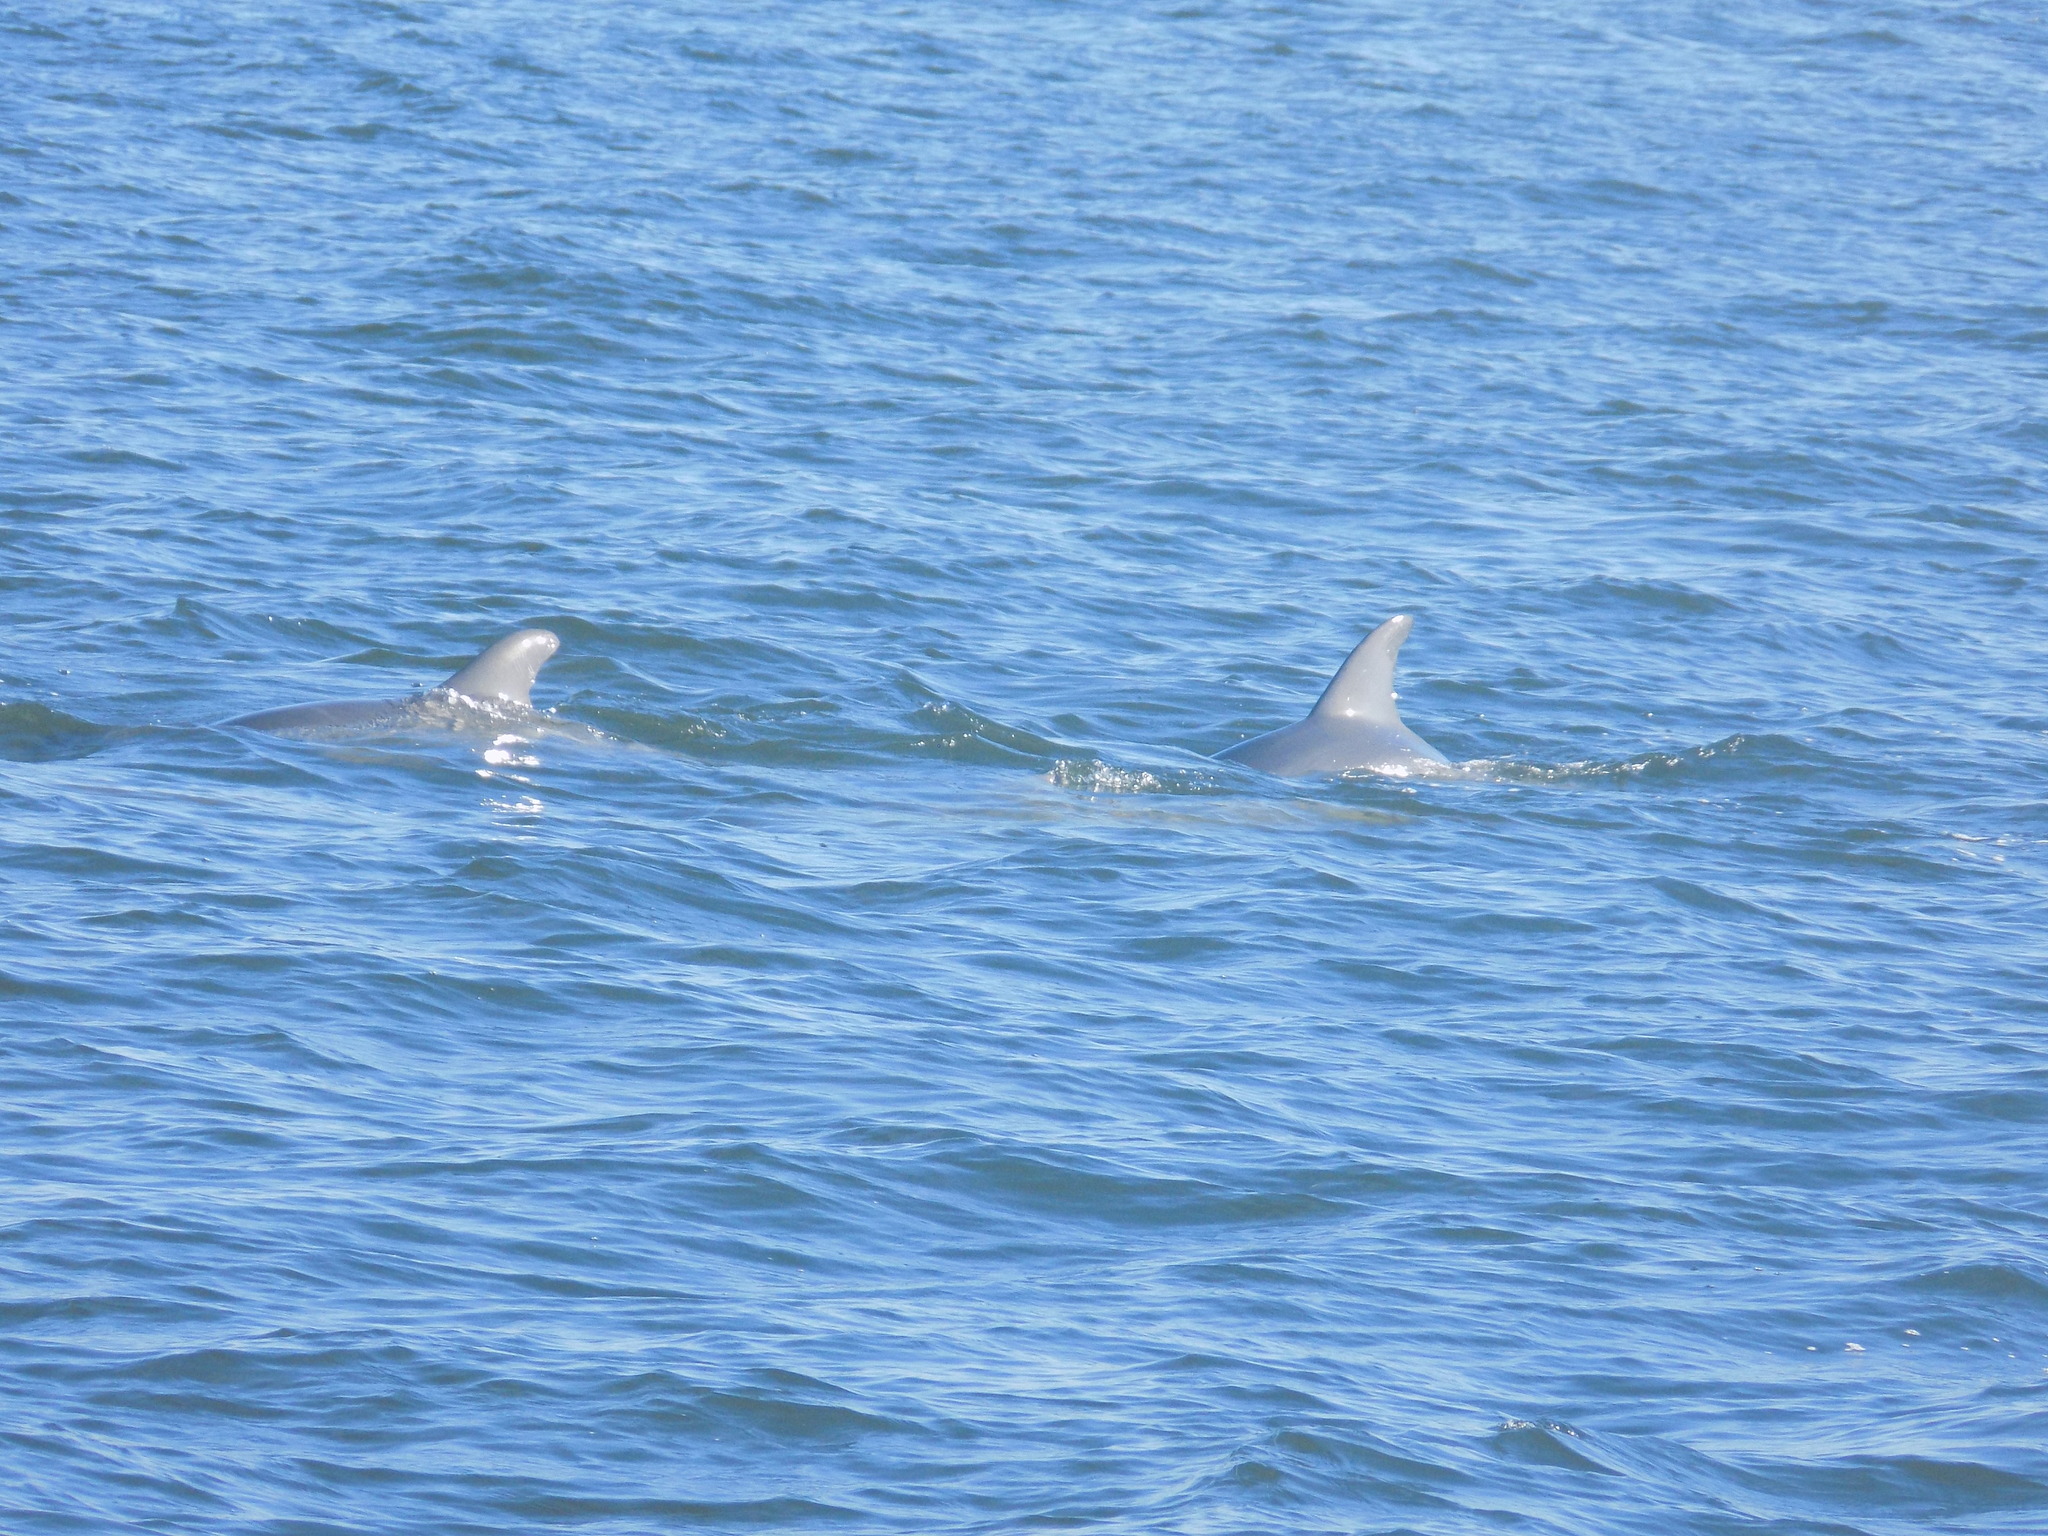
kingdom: Animalia
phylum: Chordata
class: Mammalia
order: Cetacea
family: Delphinidae
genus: Tursiops
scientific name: Tursiops truncatus
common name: Bottlenose dolphin
